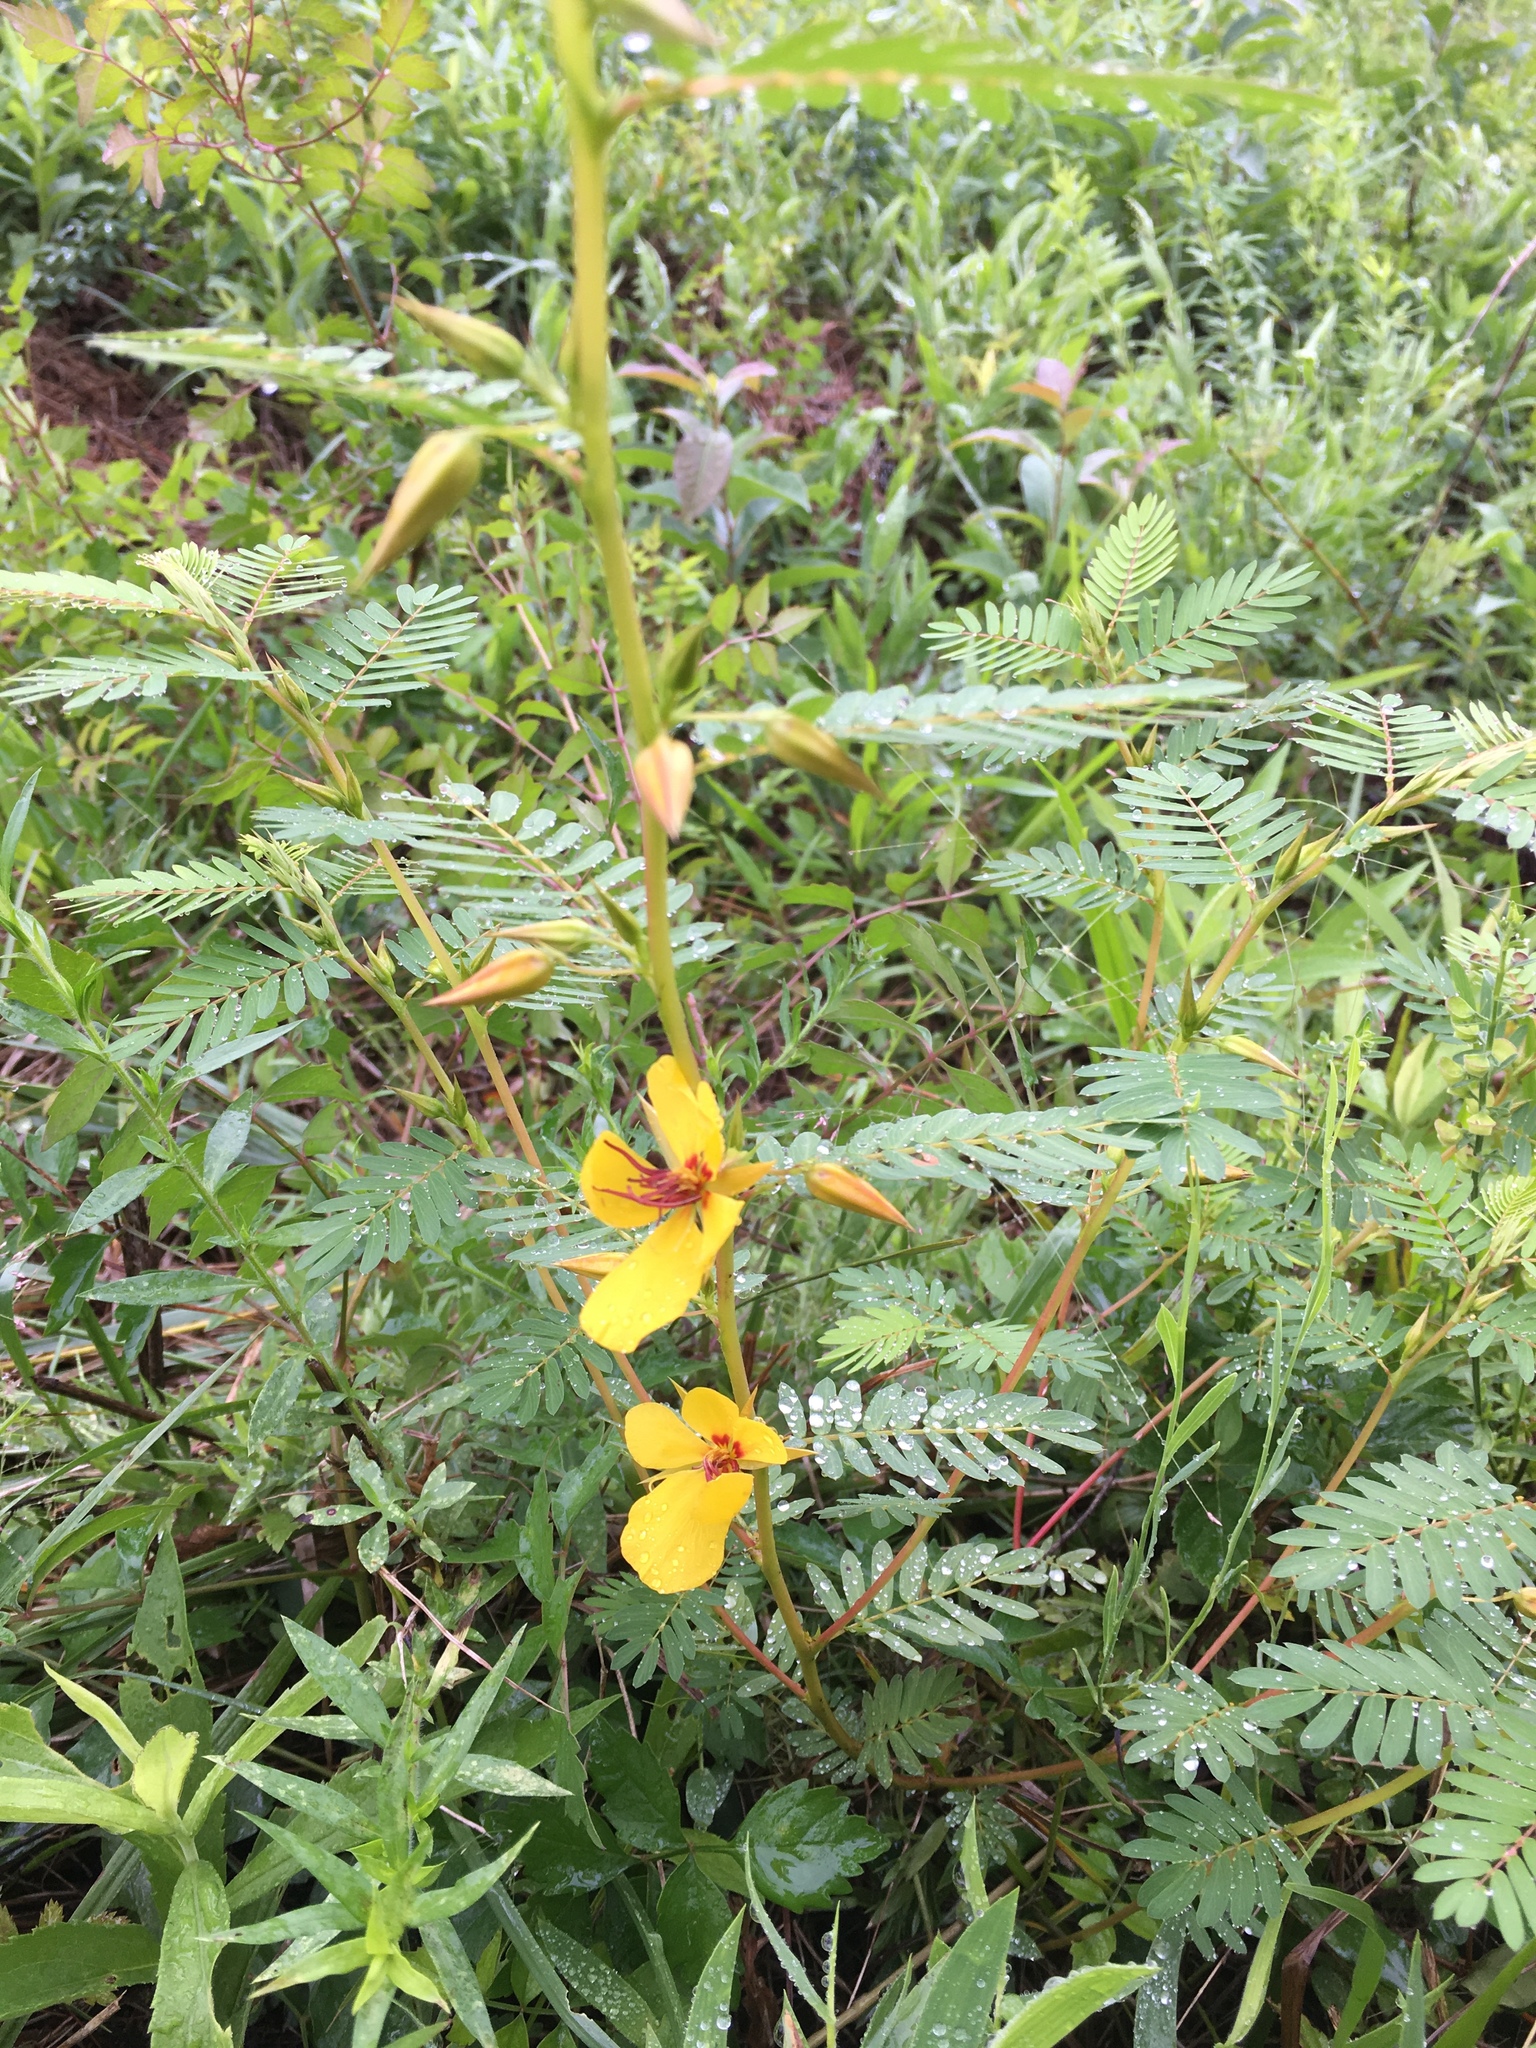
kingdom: Plantae
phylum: Tracheophyta
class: Magnoliopsida
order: Fabales
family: Fabaceae
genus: Chamaecrista
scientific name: Chamaecrista fasciculata
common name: Golden cassia
